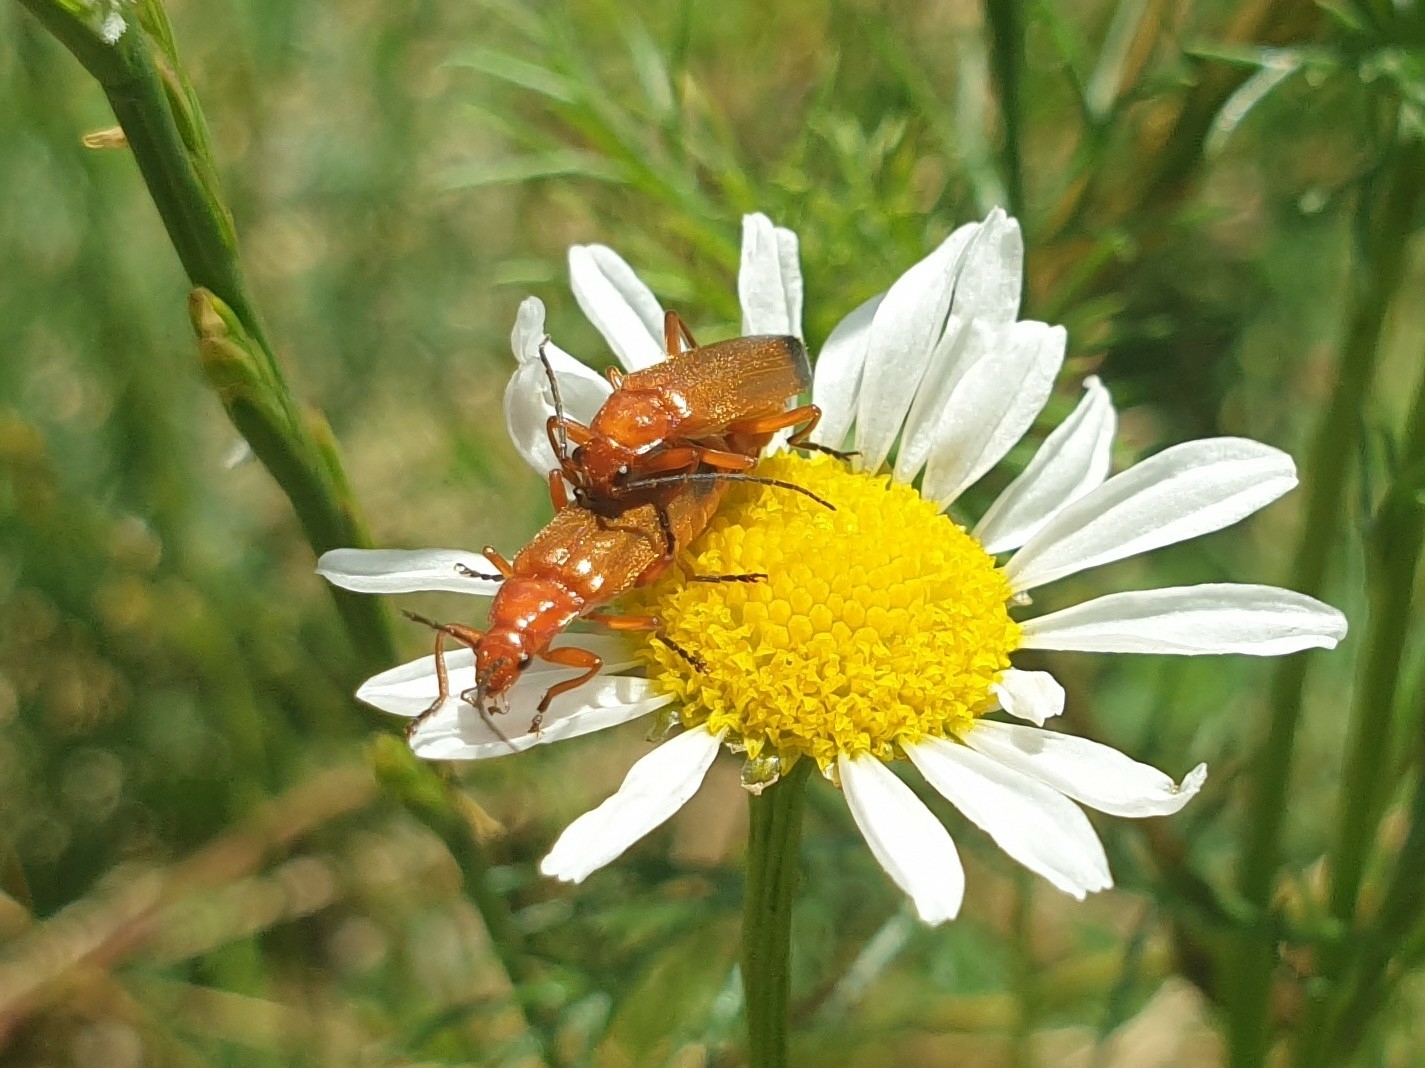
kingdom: Animalia
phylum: Arthropoda
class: Insecta
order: Coleoptera
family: Cantharidae
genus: Rhagonycha
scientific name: Rhagonycha fulva
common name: Common red soldier beetle
